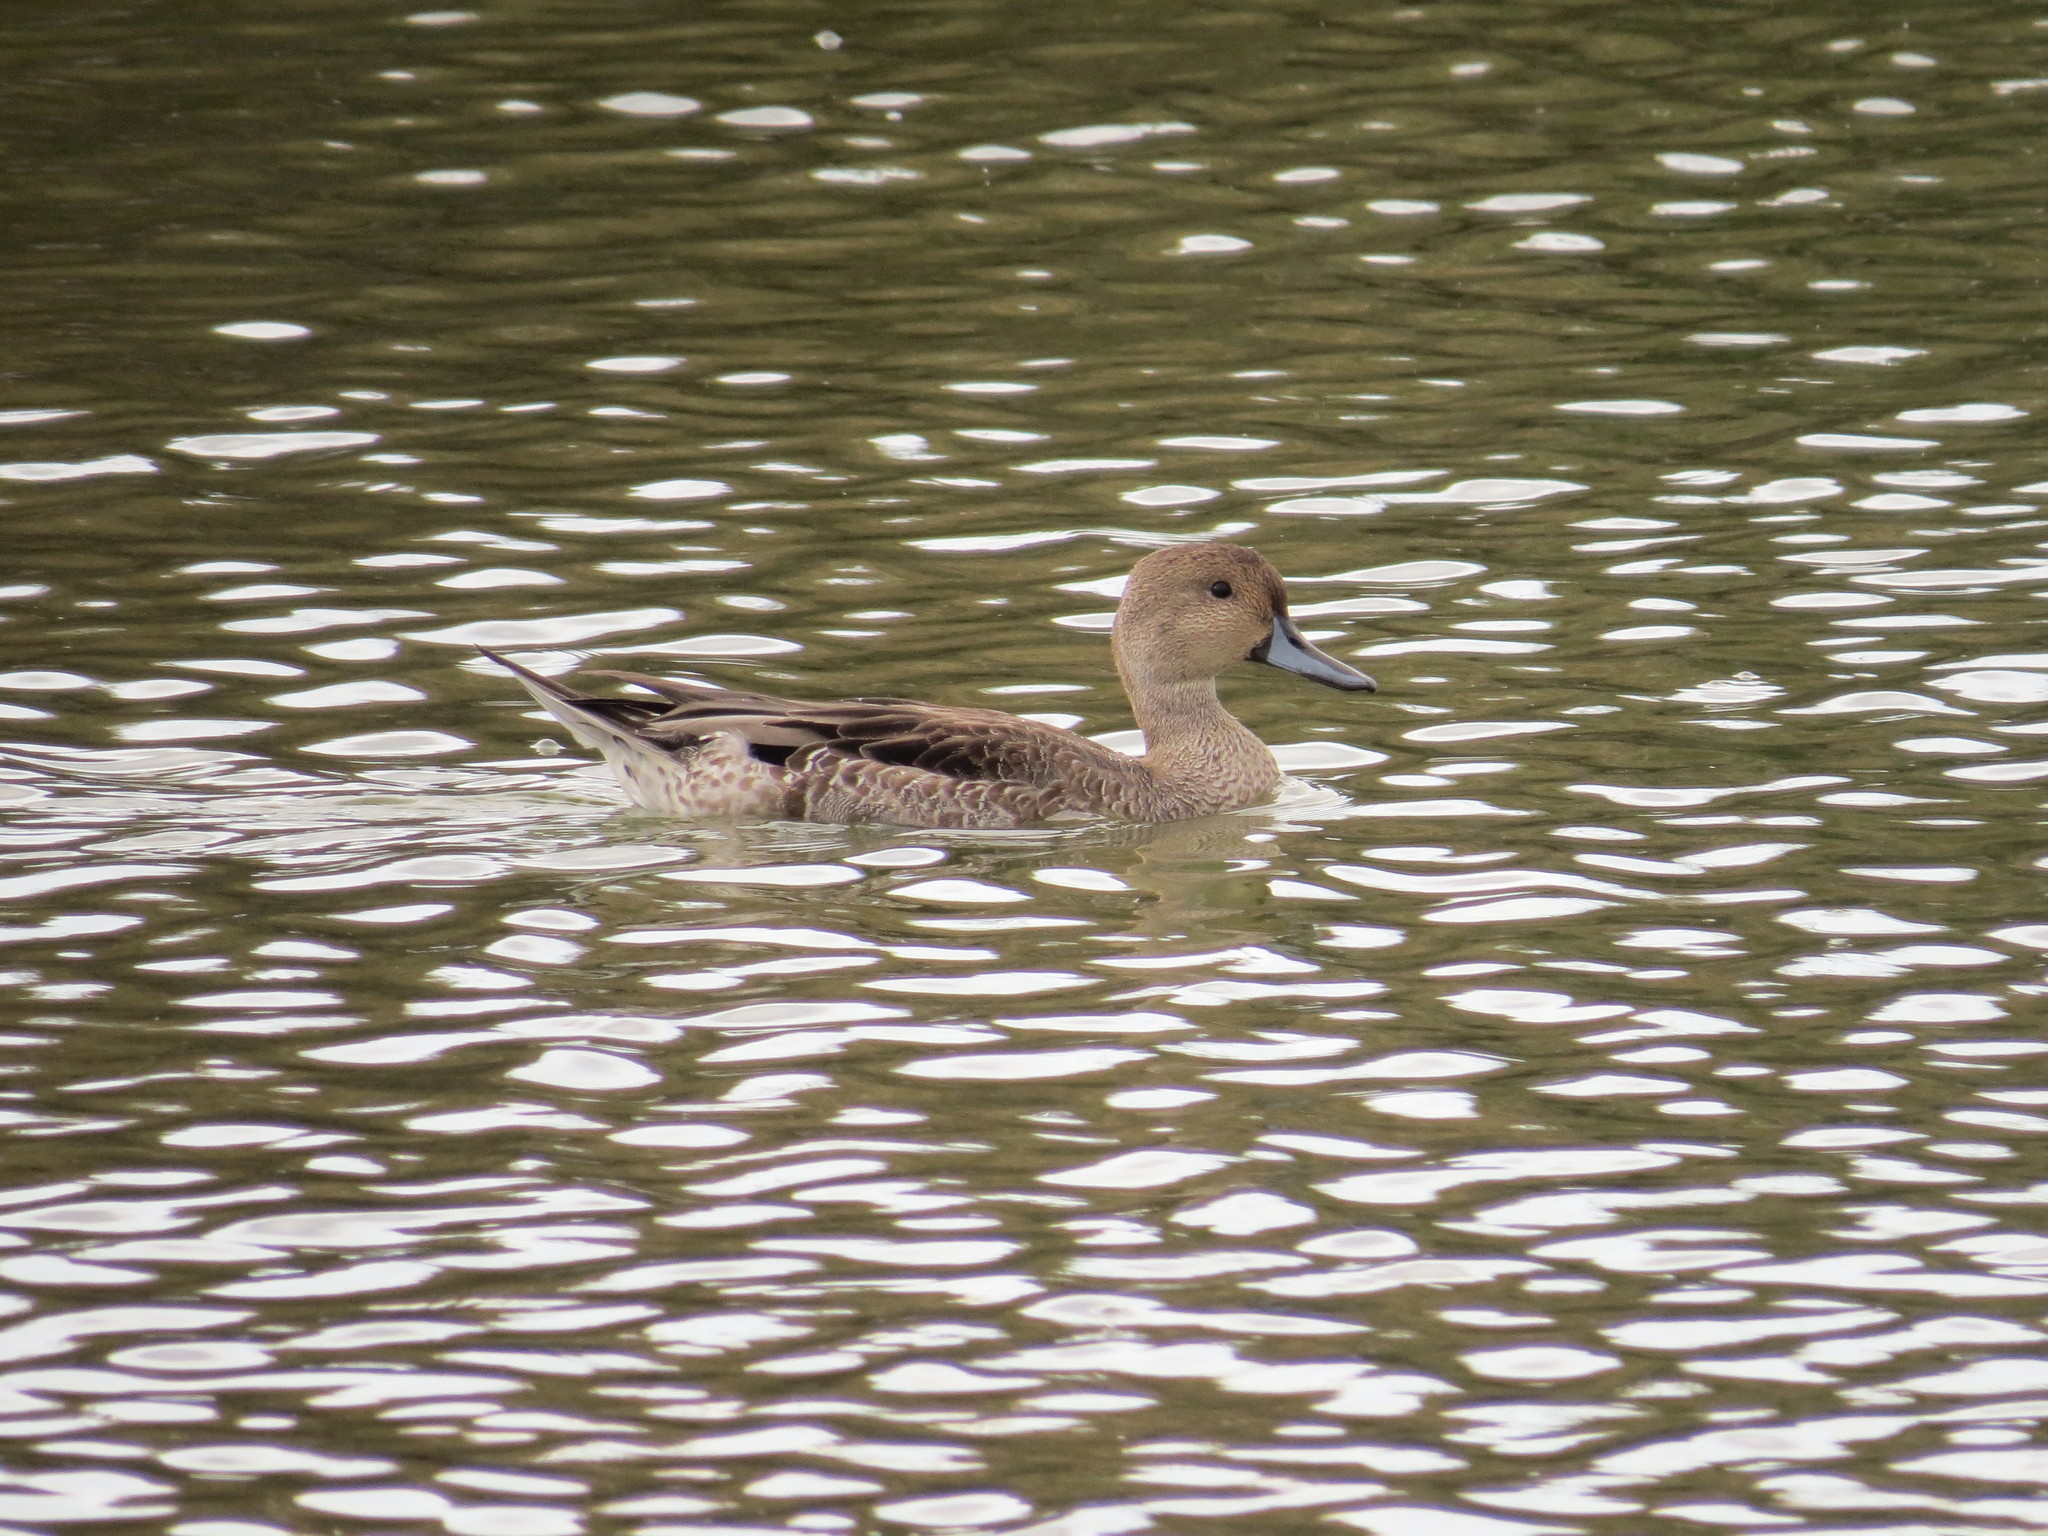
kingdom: Animalia
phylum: Chordata
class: Aves
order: Anseriformes
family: Anatidae
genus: Anas
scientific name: Anas acuta
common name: Northern pintail
